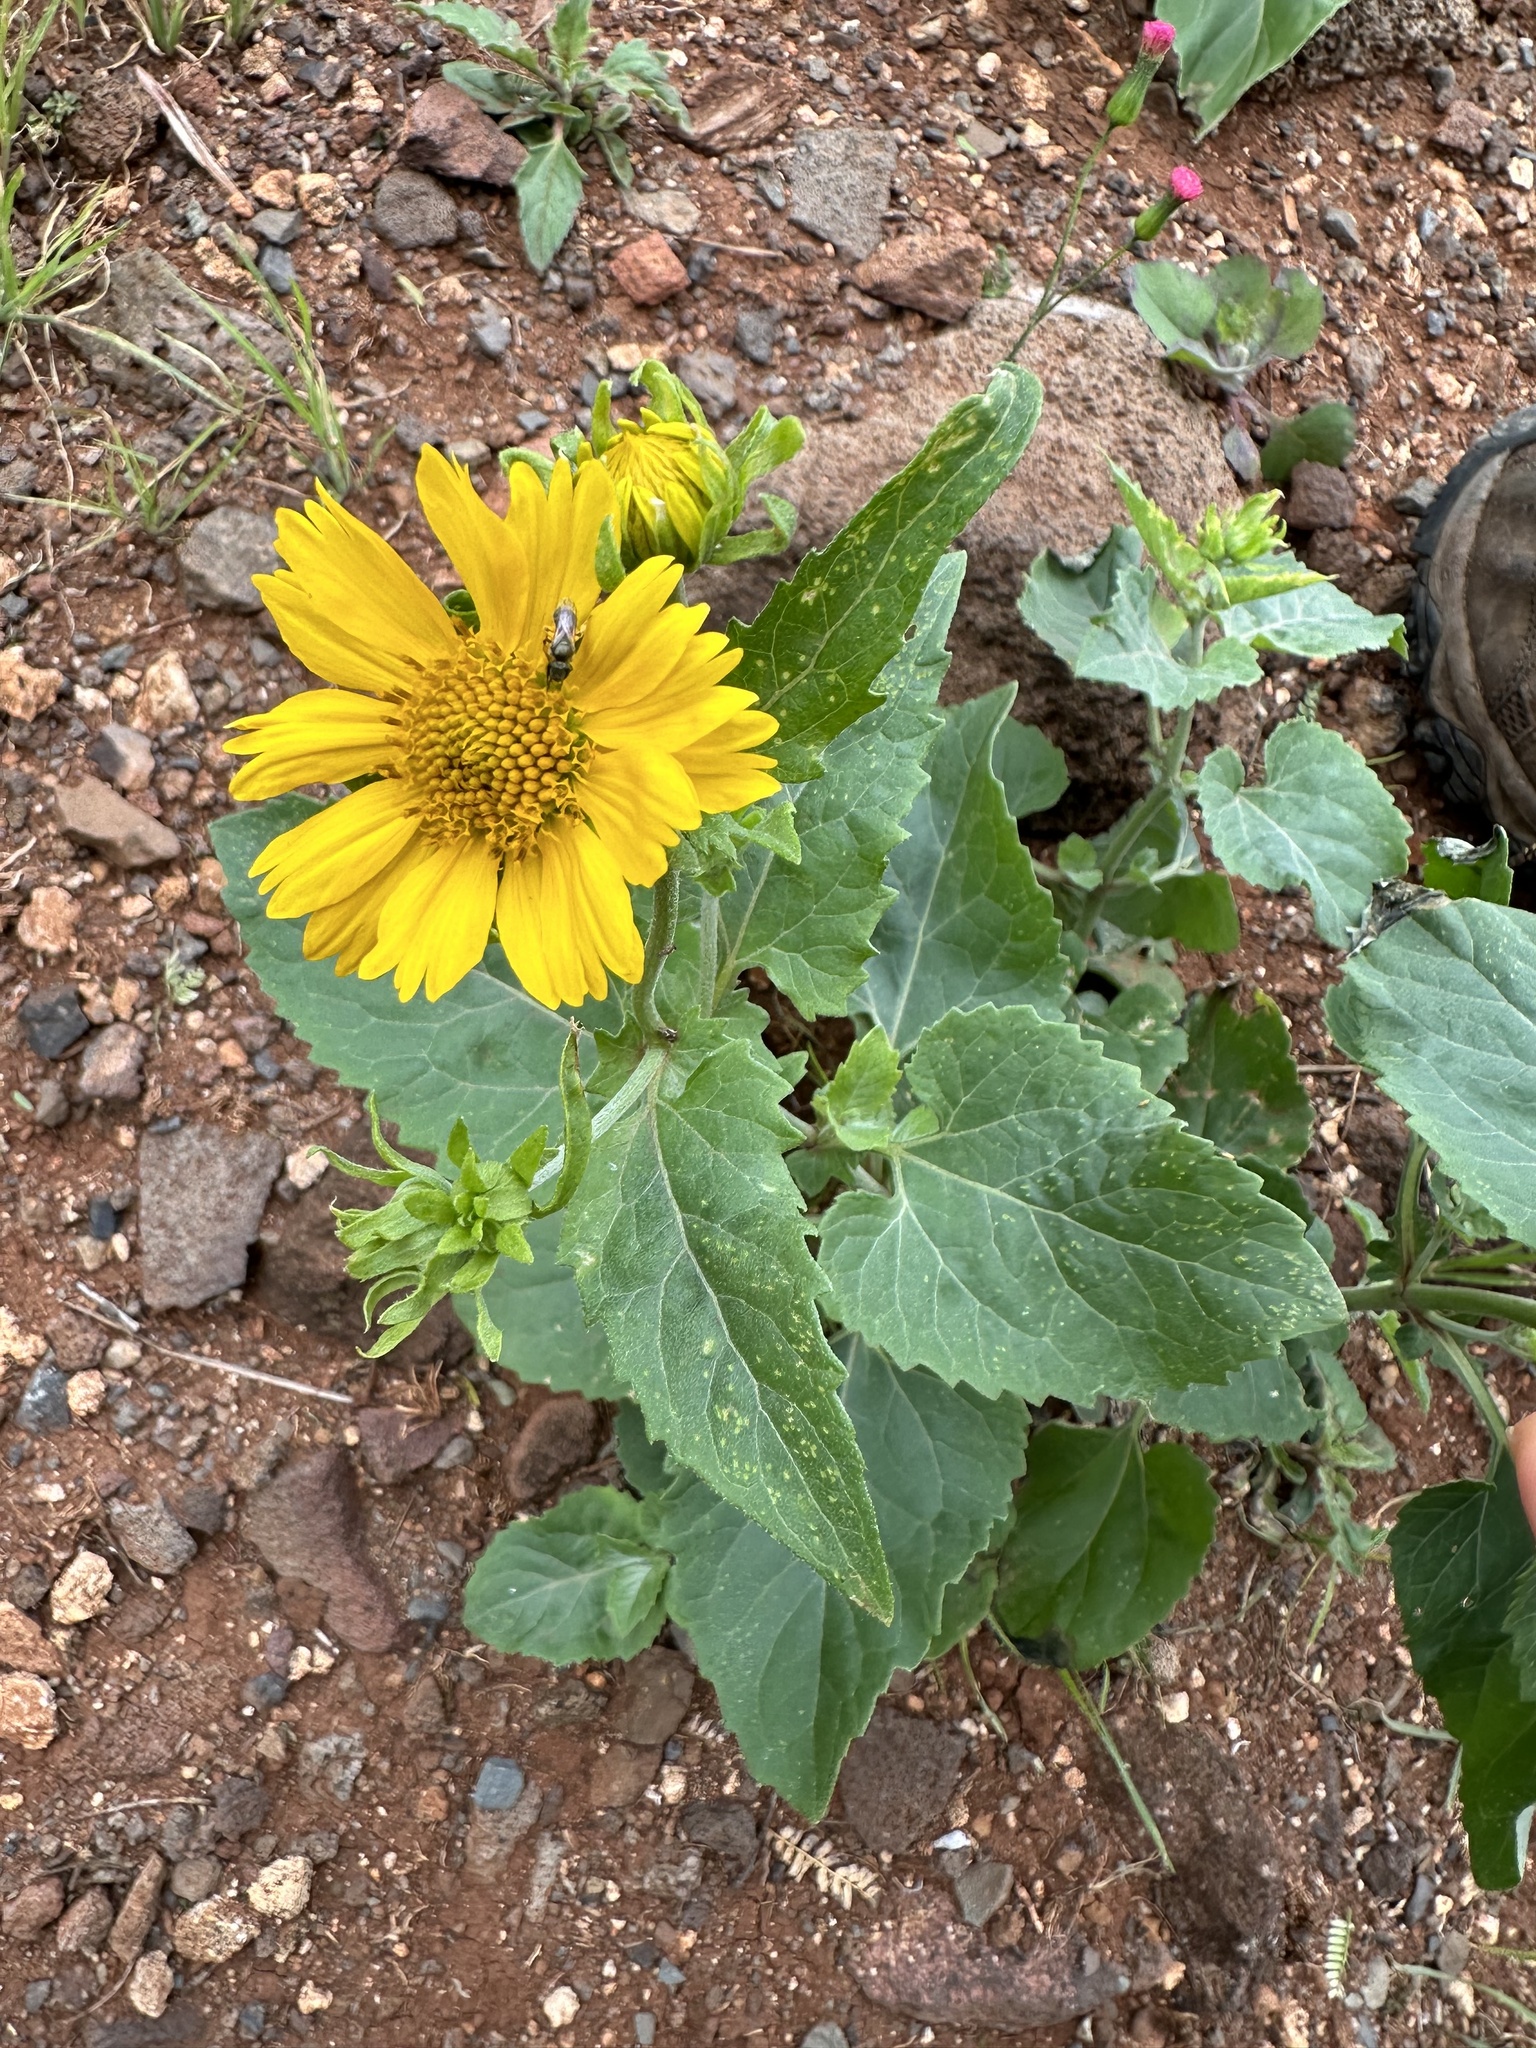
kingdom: Plantae
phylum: Tracheophyta
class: Magnoliopsida
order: Asterales
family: Asteraceae
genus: Verbesina
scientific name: Verbesina encelioides
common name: Golden crownbeard
